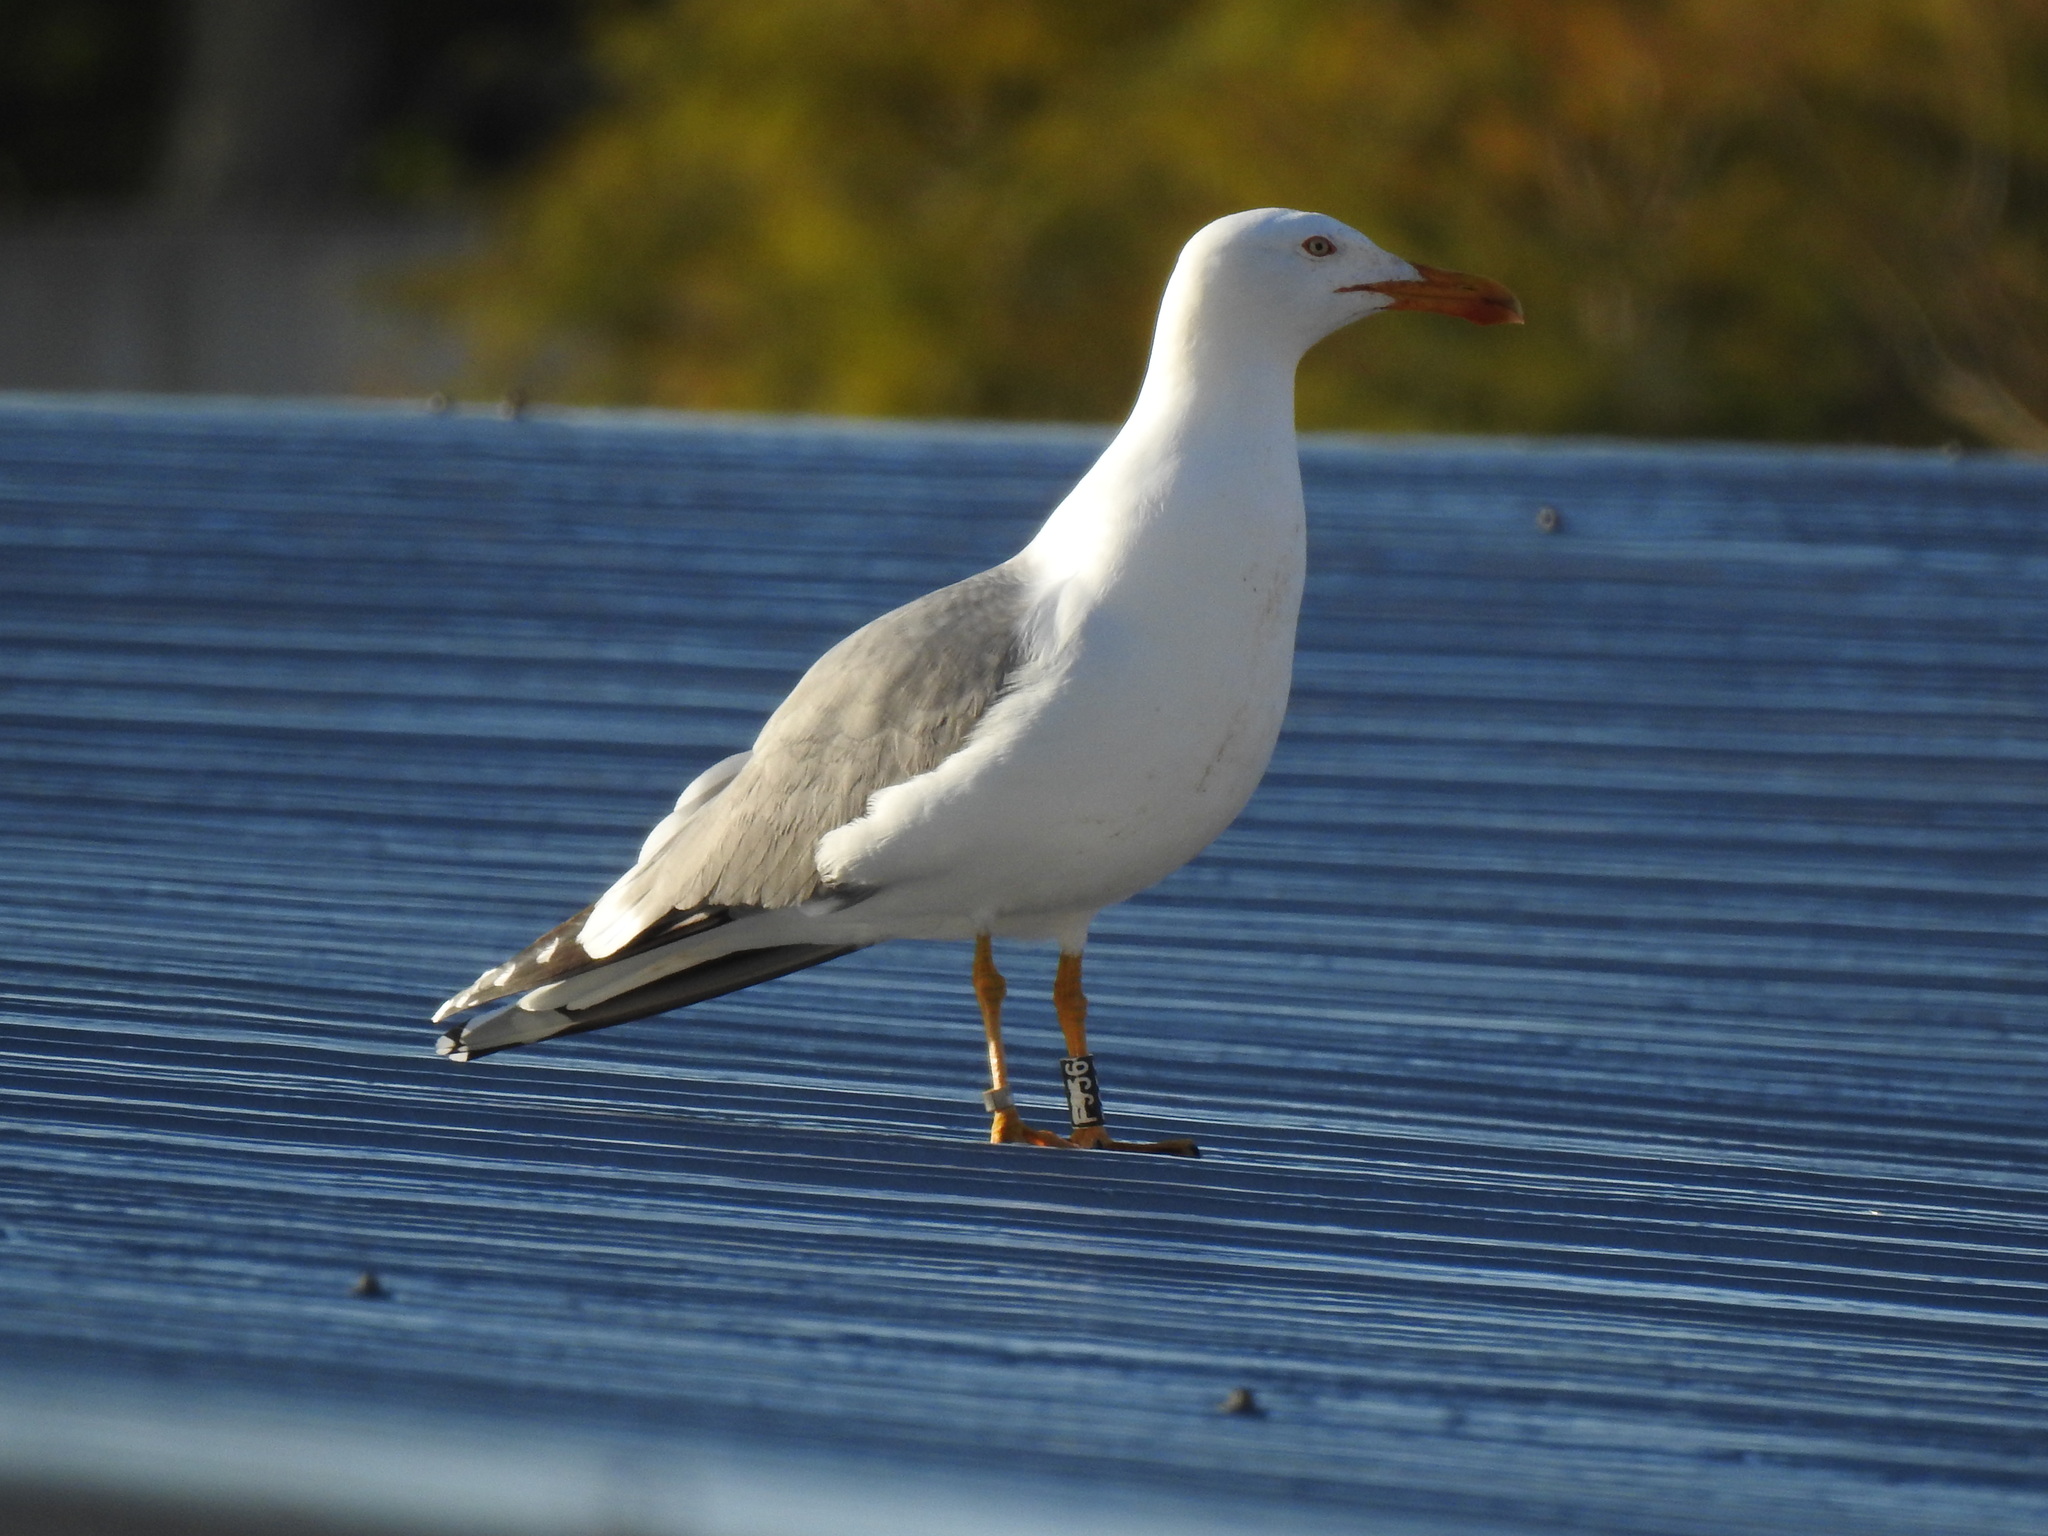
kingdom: Animalia
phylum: Chordata
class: Aves
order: Charadriiformes
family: Laridae
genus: Larus
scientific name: Larus michahellis
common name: Yellow-legged gull
